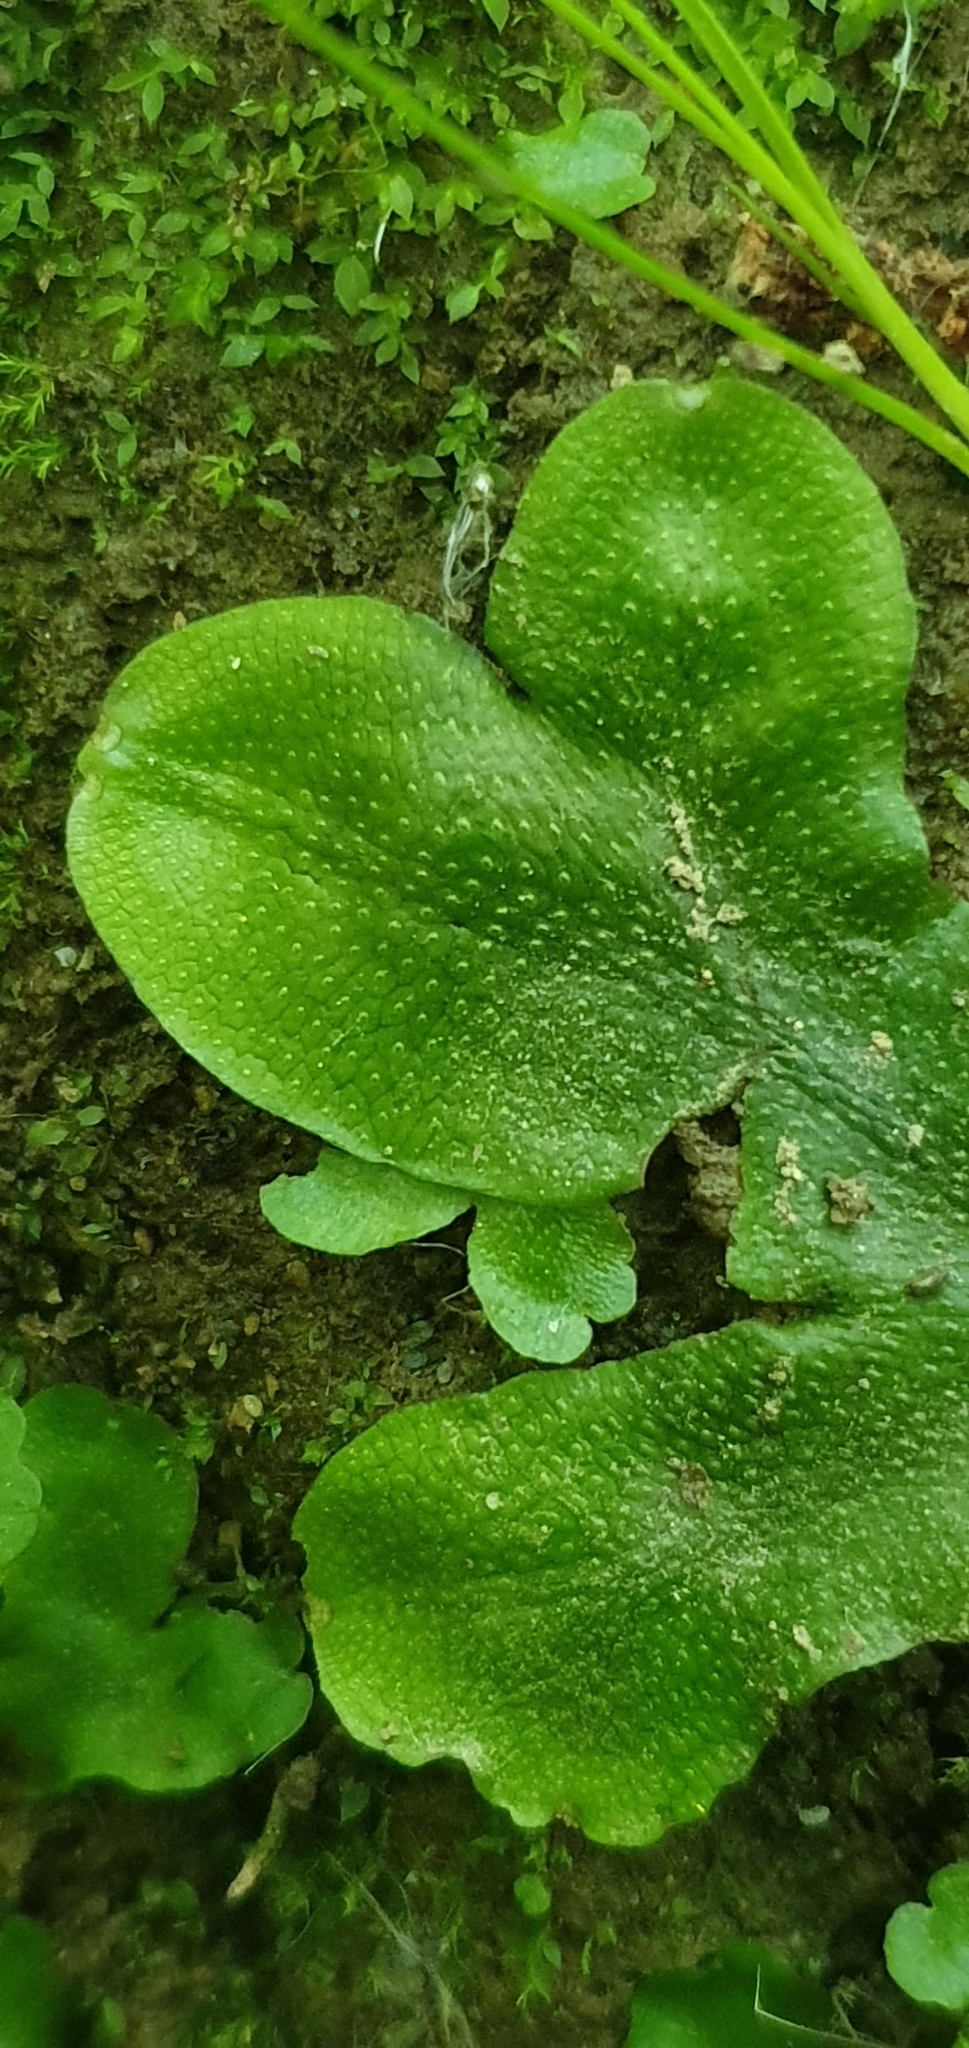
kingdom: Plantae
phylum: Marchantiophyta
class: Marchantiopsida
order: Marchantiales
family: Conocephalaceae
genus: Conocephalum
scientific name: Conocephalum conicum
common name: Great scented liverwort
